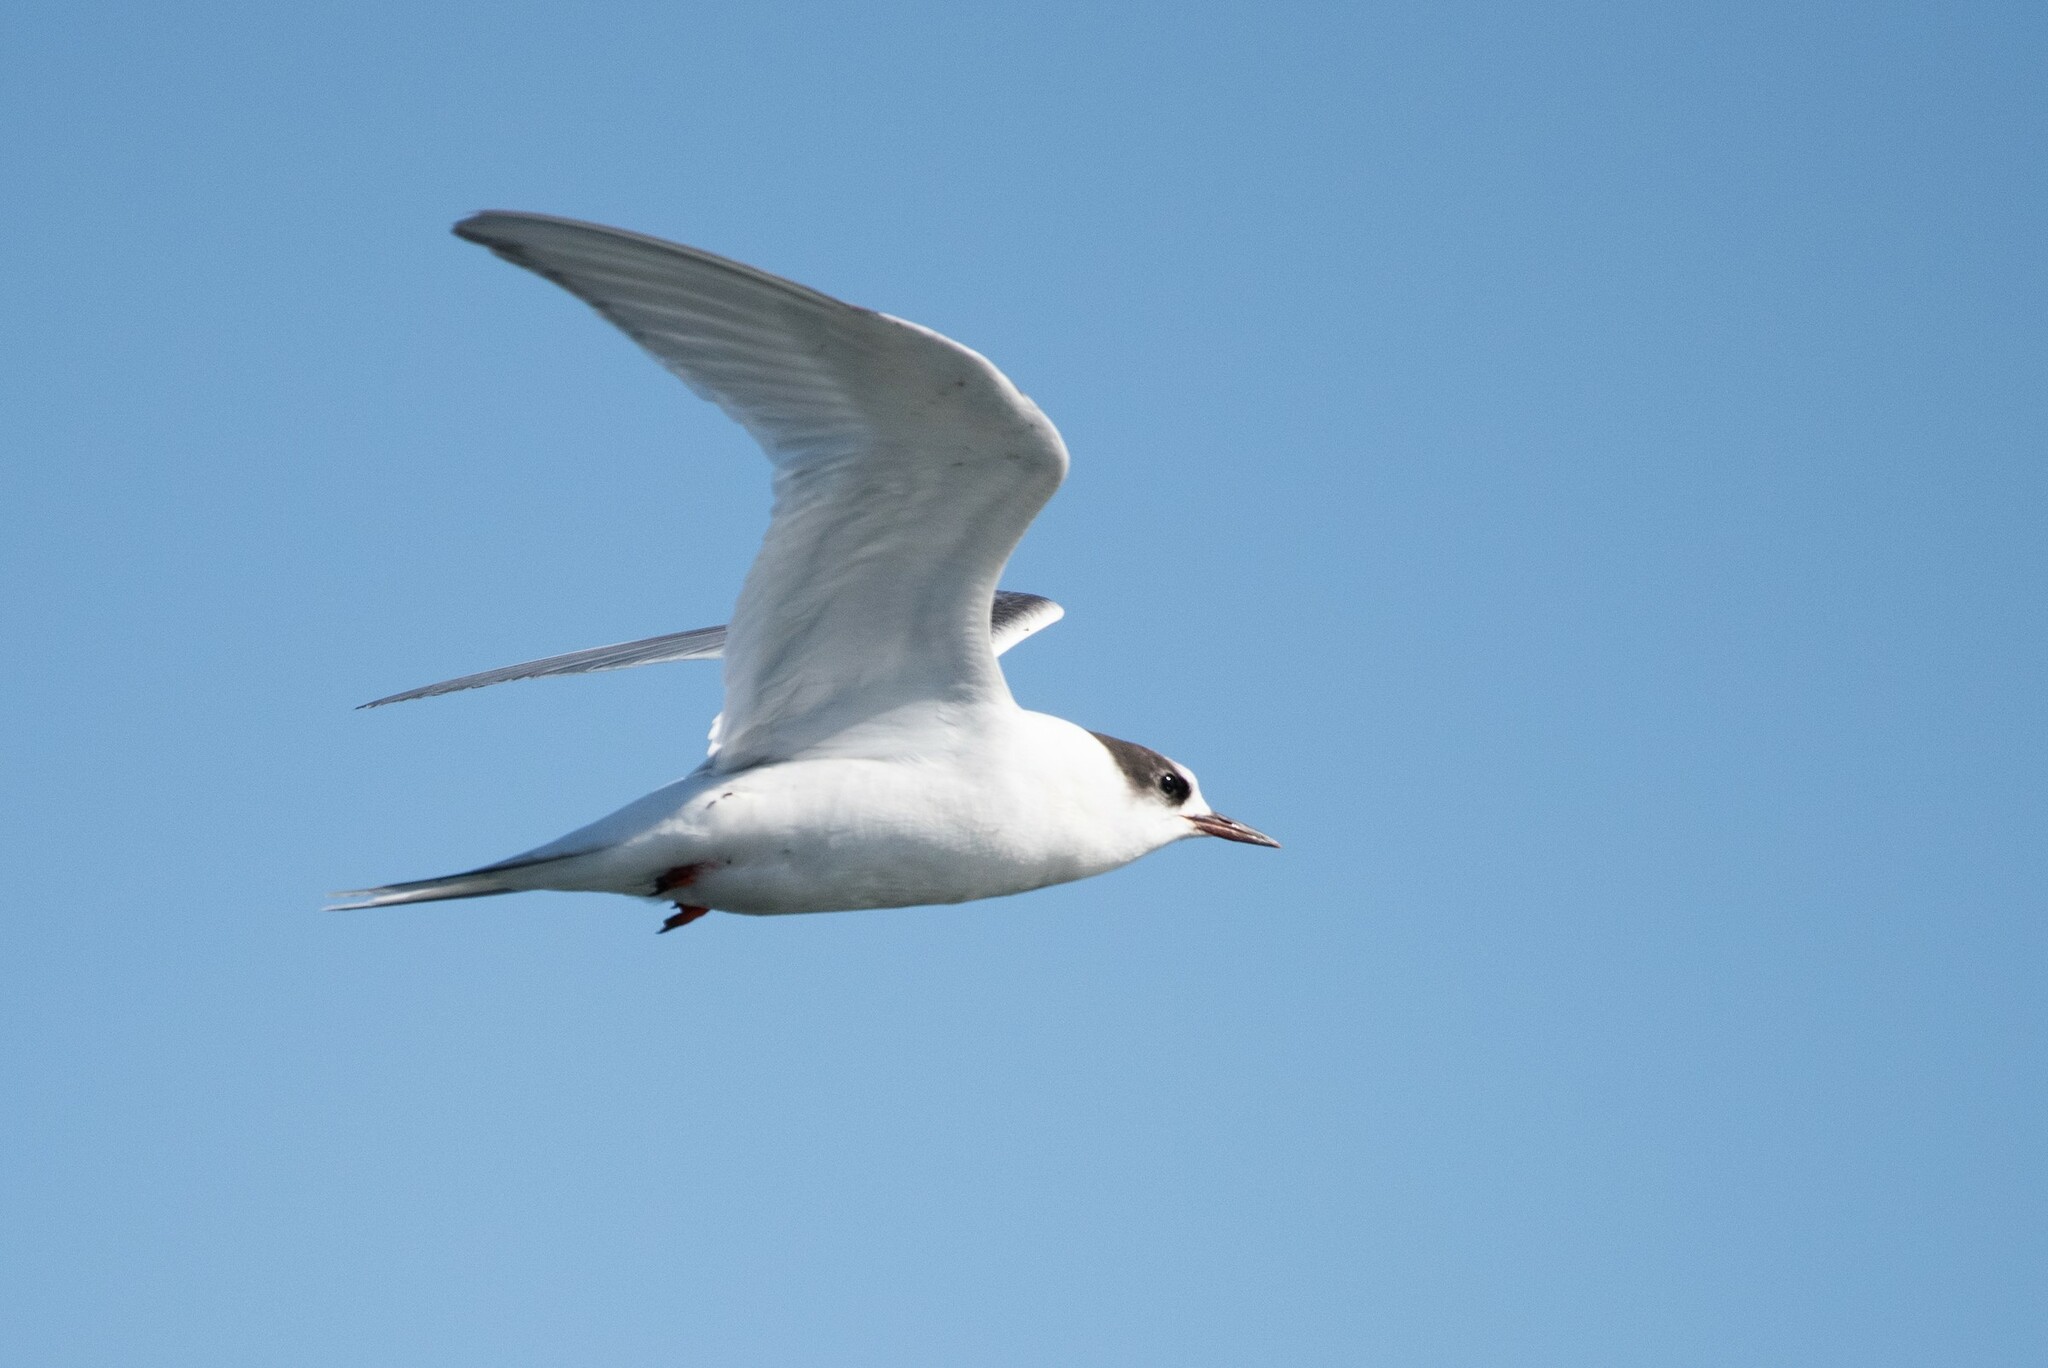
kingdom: Animalia
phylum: Chordata
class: Aves
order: Charadriiformes
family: Laridae
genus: Sterna
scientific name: Sterna paradisaea
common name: Arctic tern
